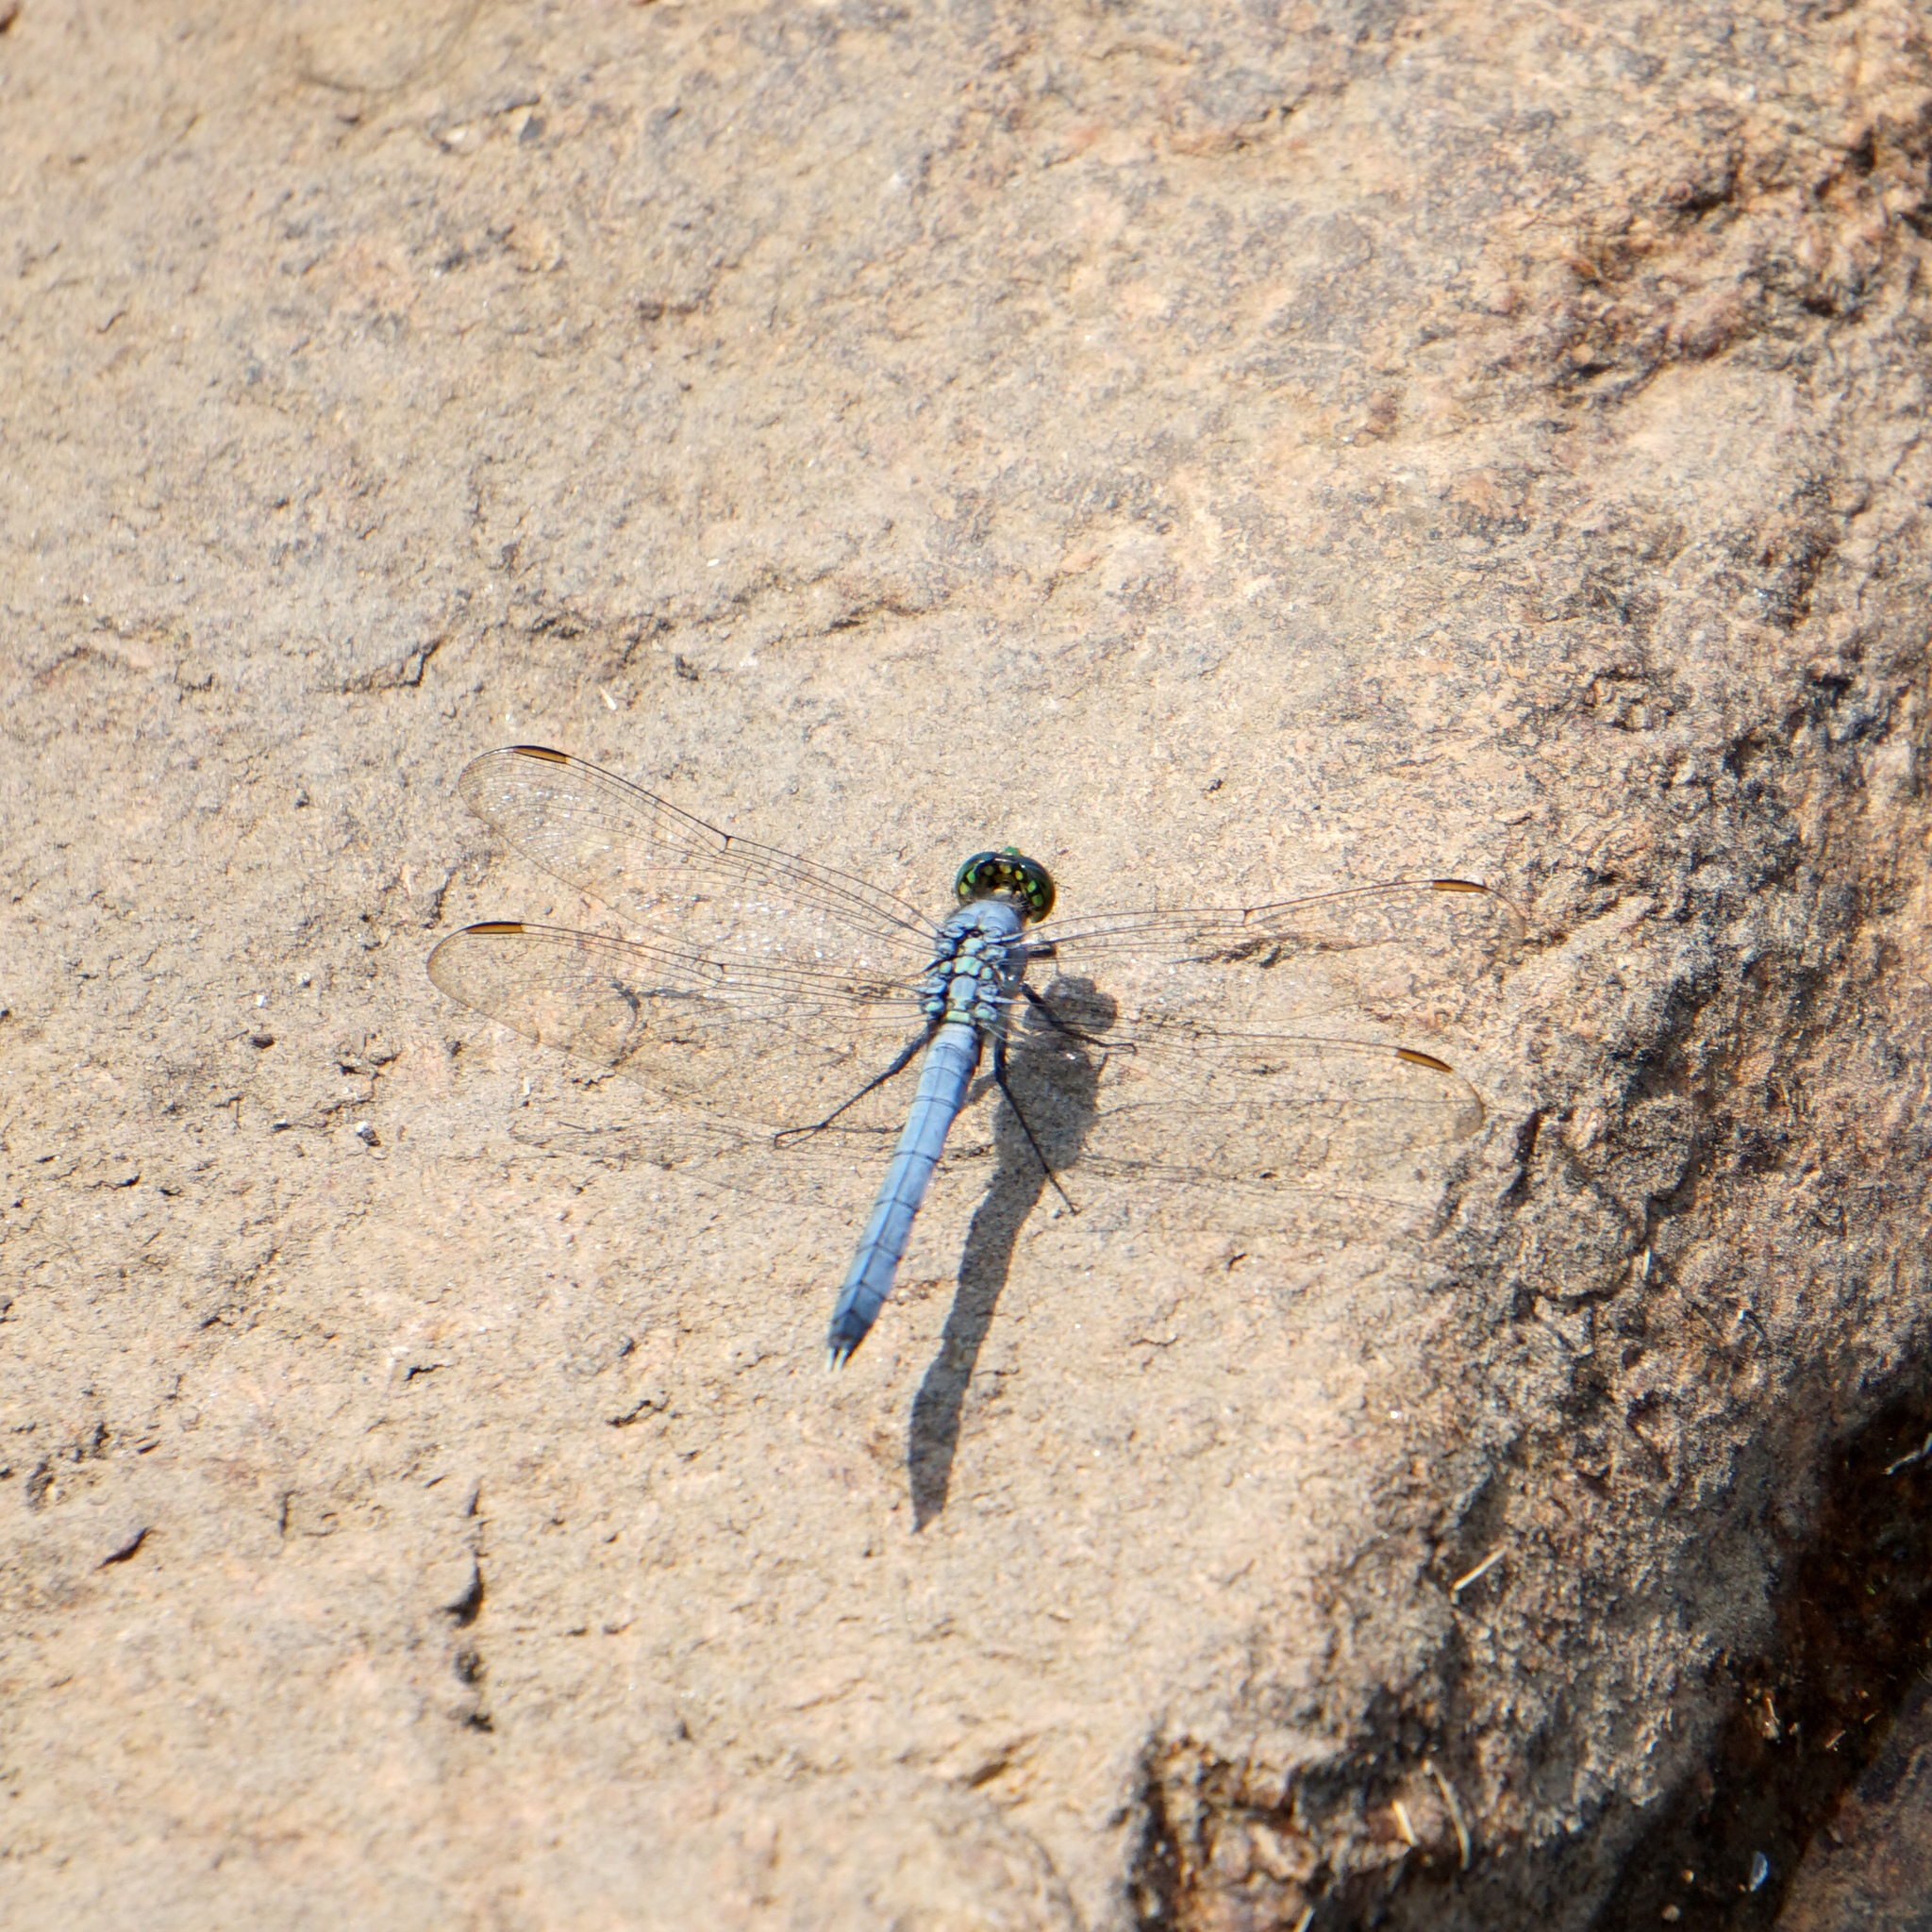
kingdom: Animalia
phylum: Arthropoda
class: Insecta
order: Odonata
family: Libellulidae
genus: Erythemis
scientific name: Erythemis simplicicollis
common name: Eastern pondhawk
